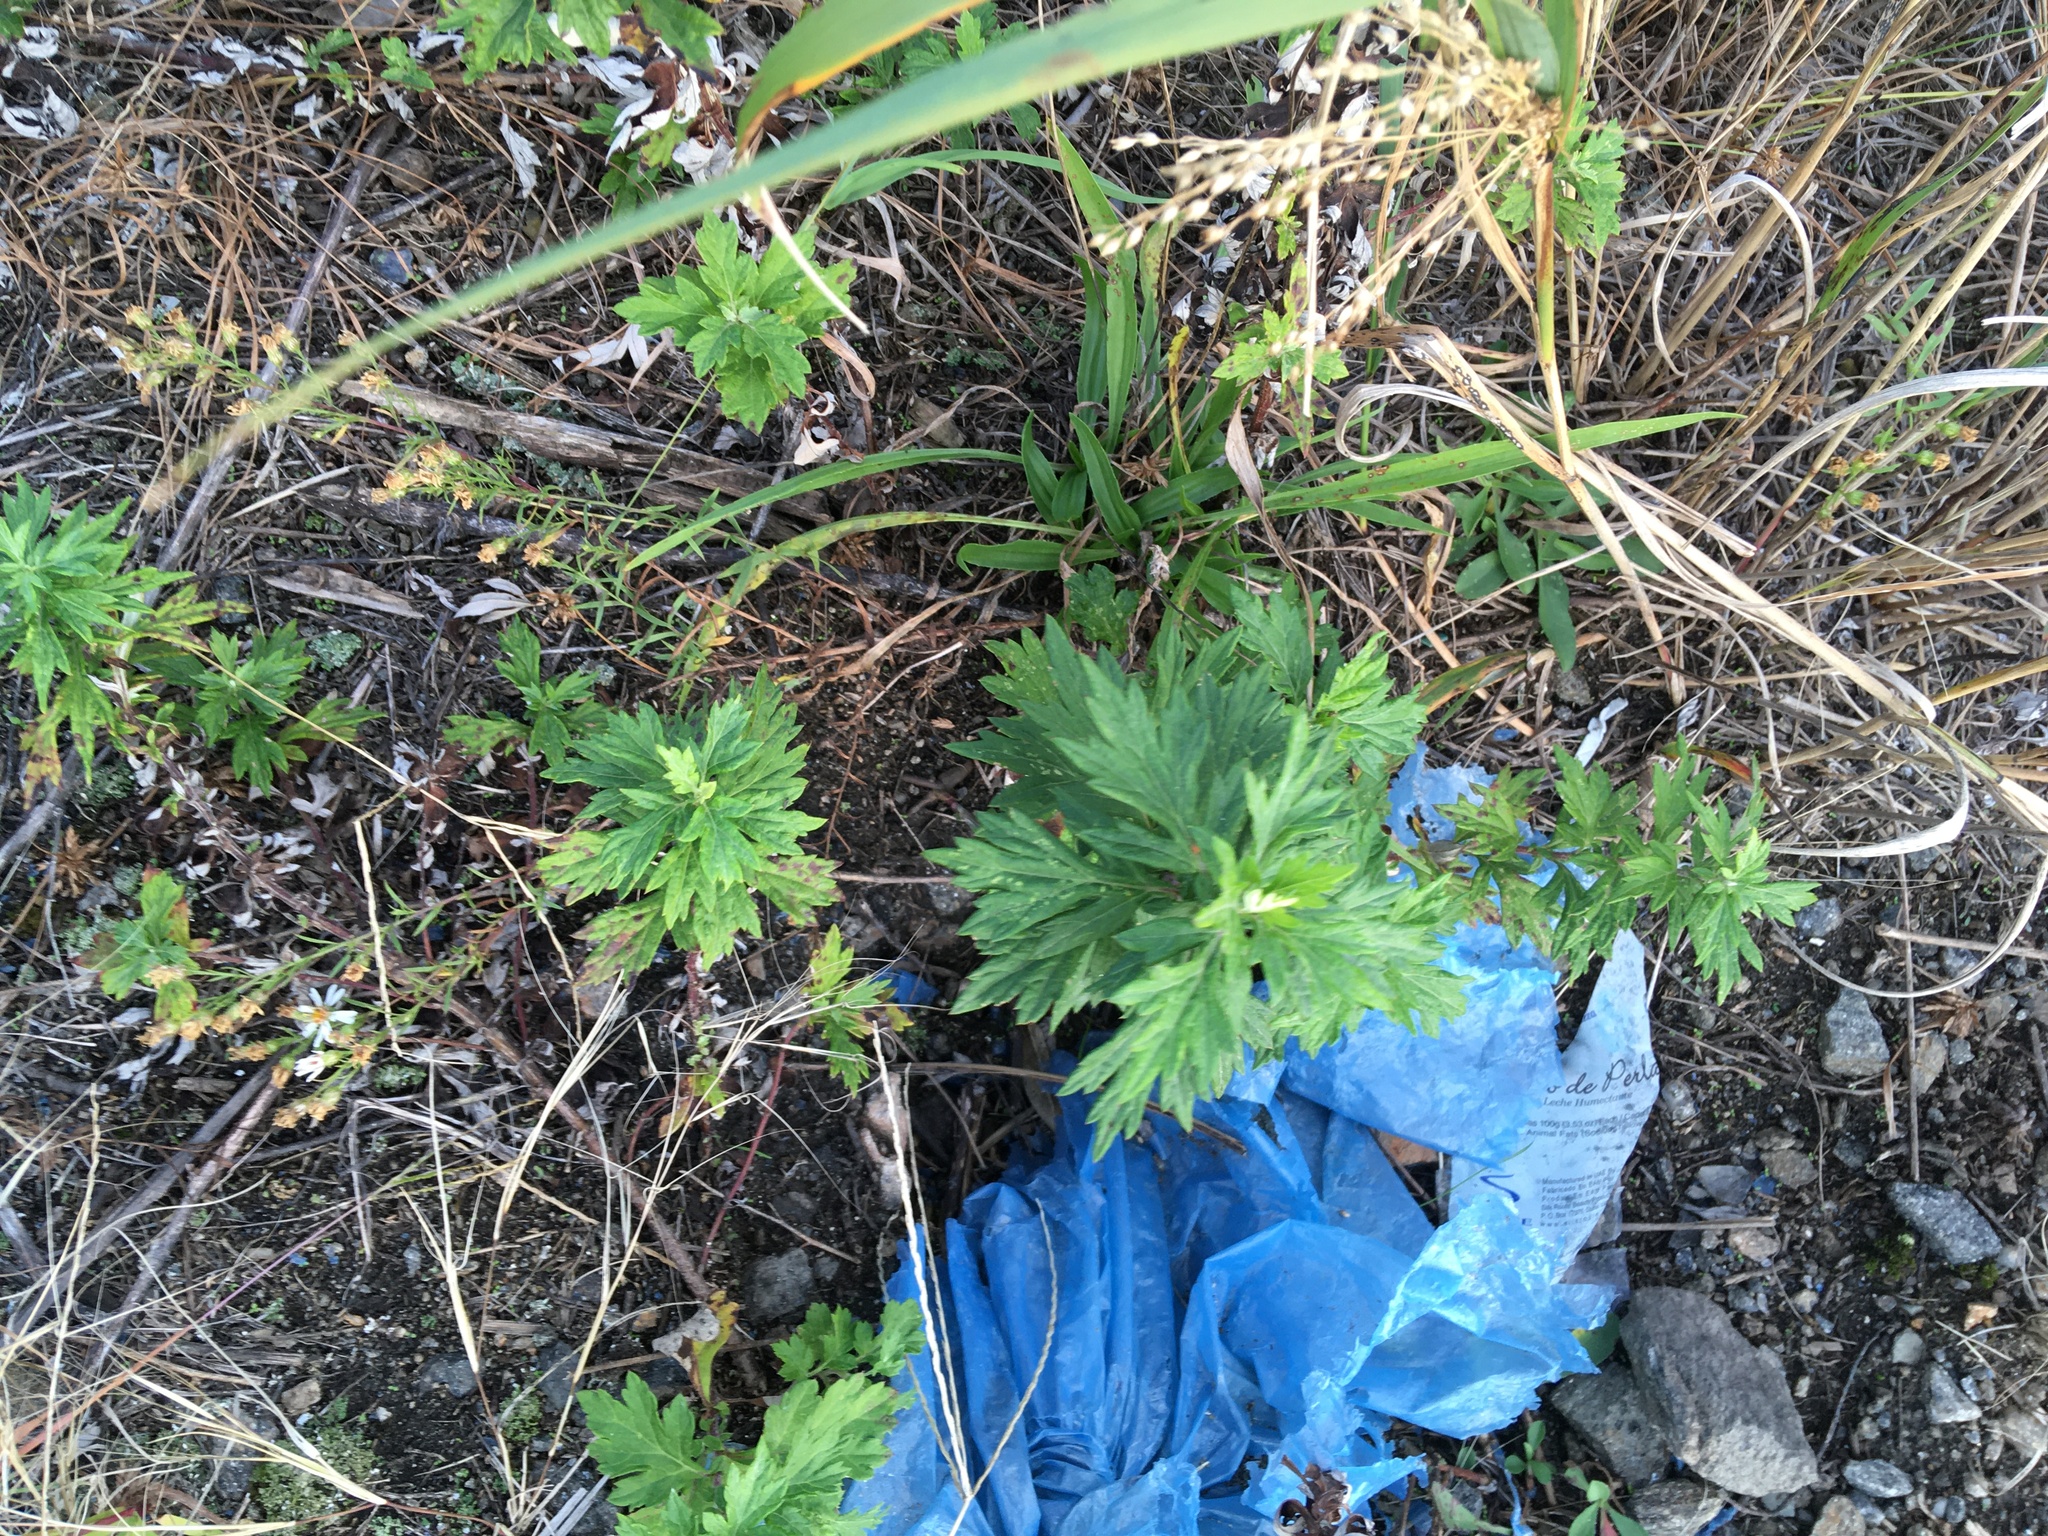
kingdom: Plantae
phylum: Tracheophyta
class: Magnoliopsida
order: Asterales
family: Asteraceae
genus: Artemisia
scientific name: Artemisia vulgaris
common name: Mugwort
